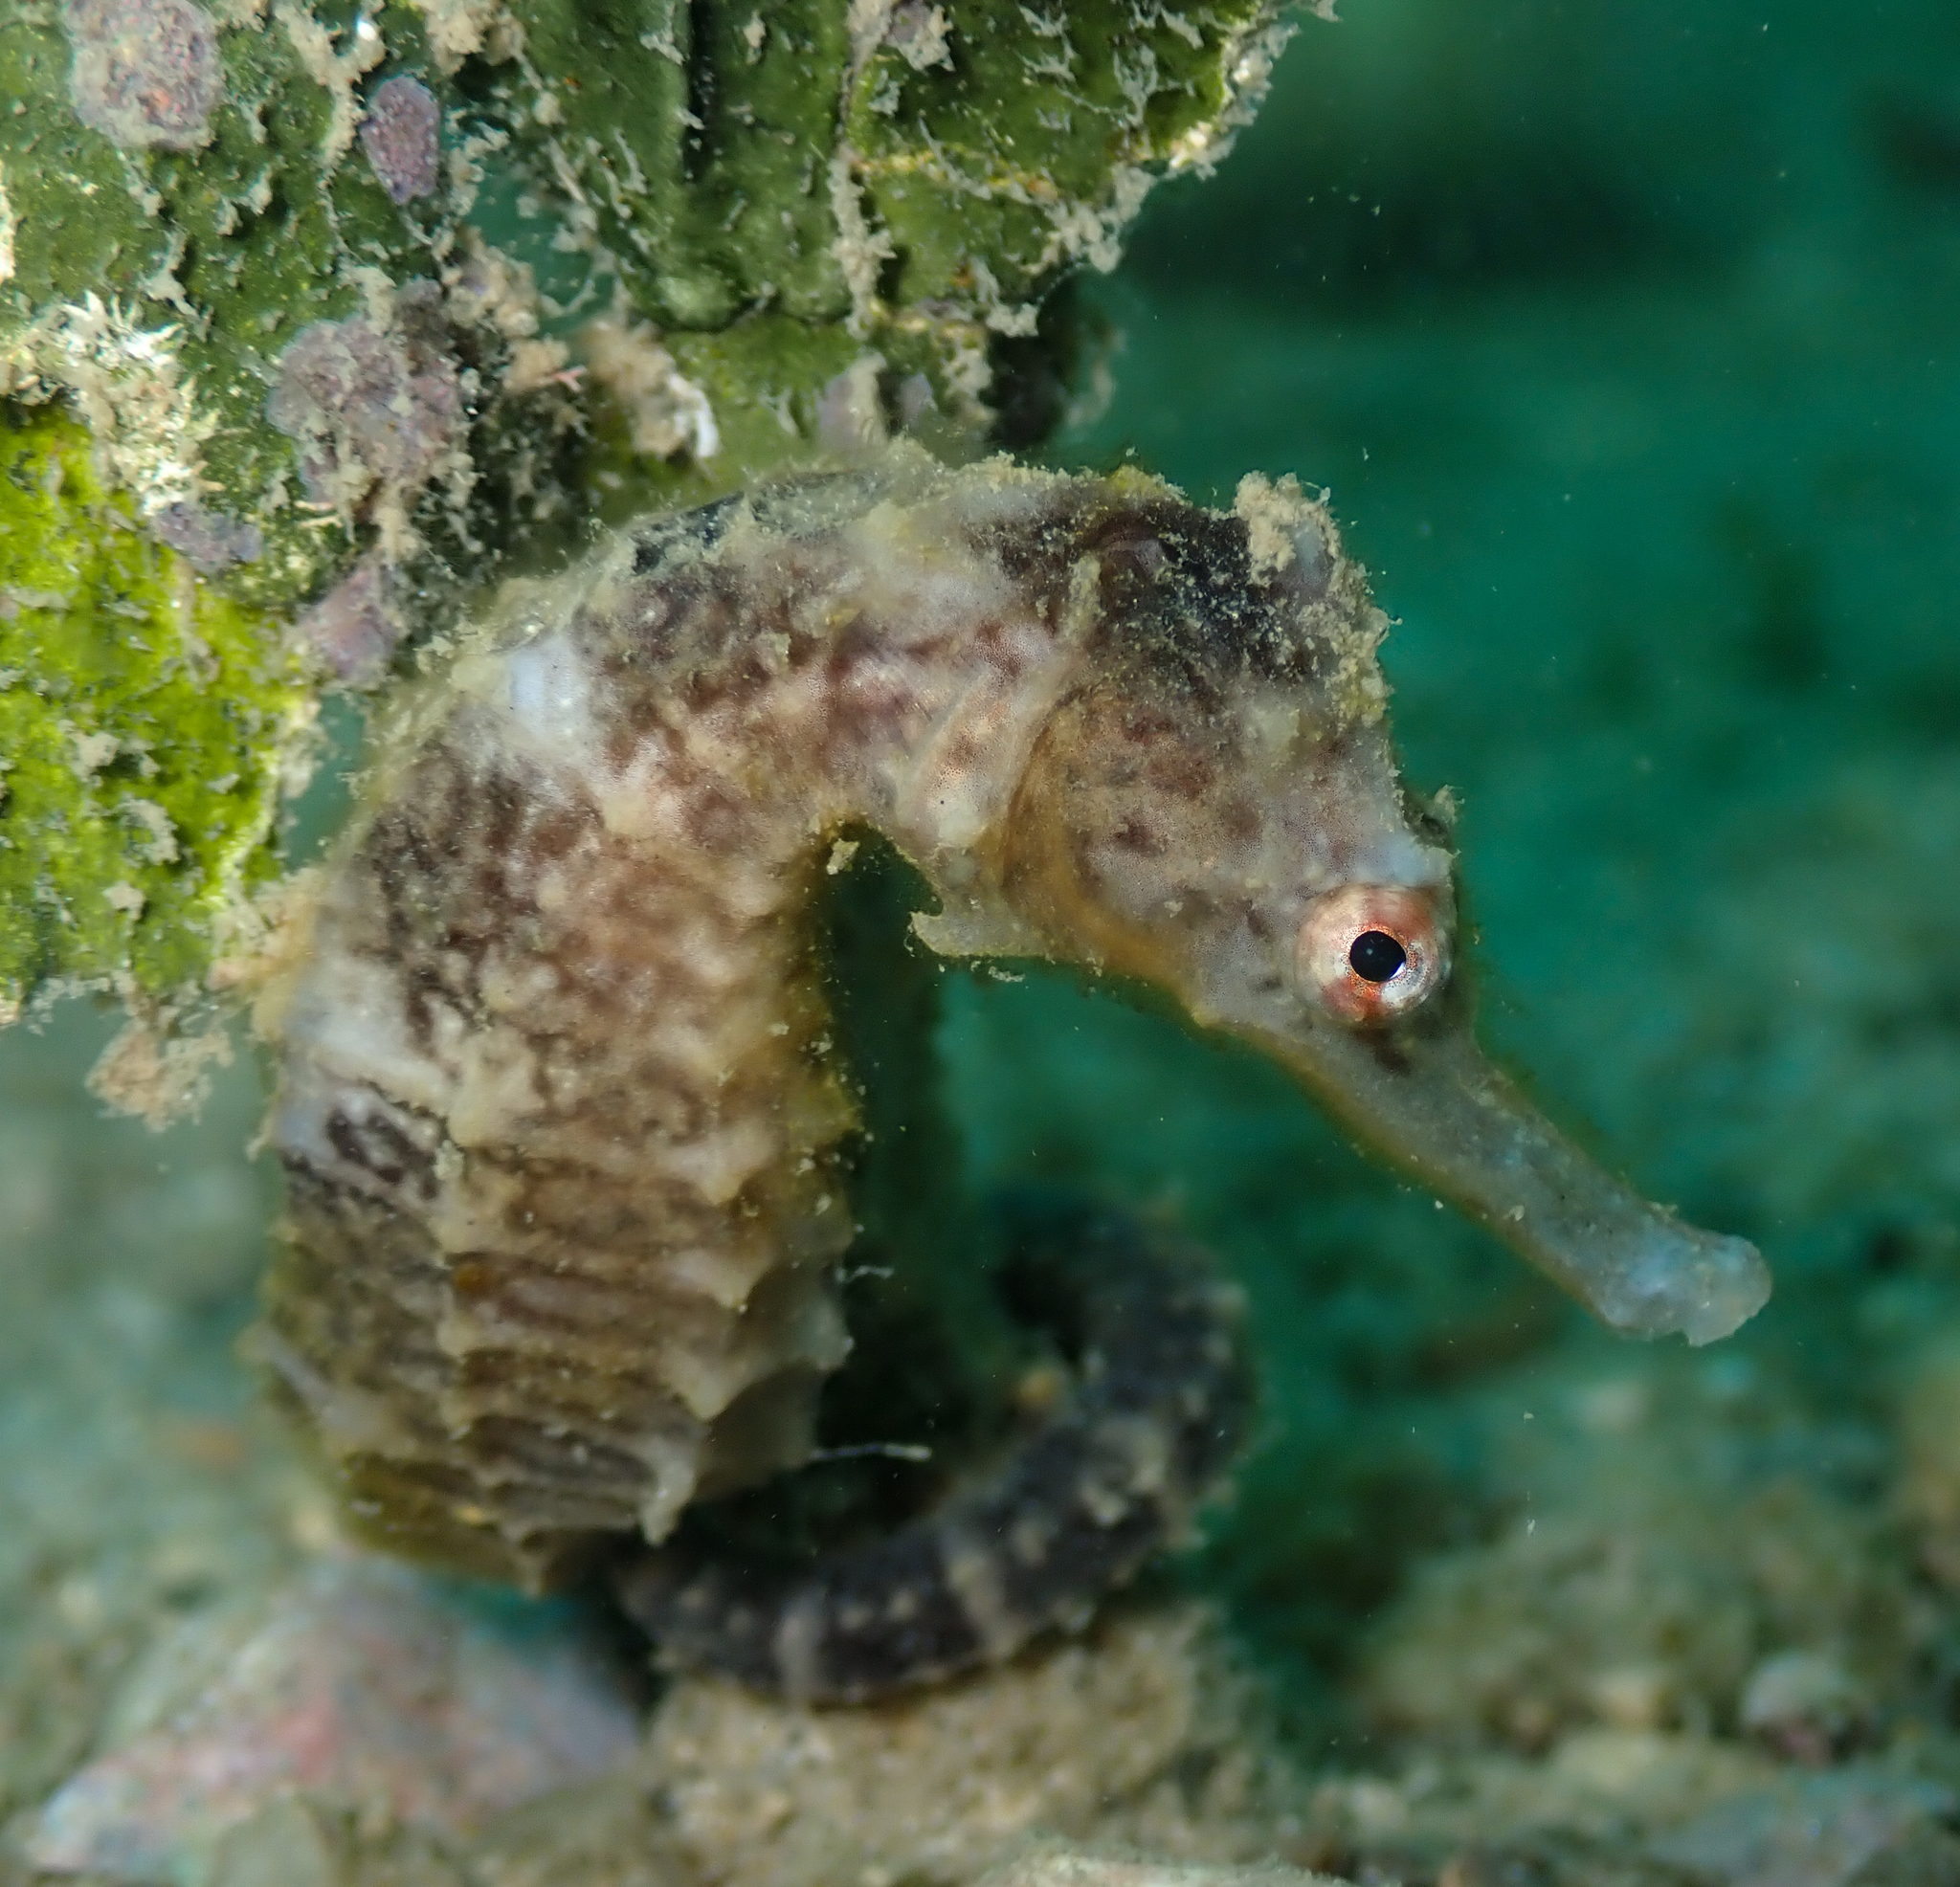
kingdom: Animalia
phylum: Chordata
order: Syngnathiformes
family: Syngnathidae
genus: Hippocampus
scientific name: Hippocampus trimaculatus
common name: Flat-faced seahorse
